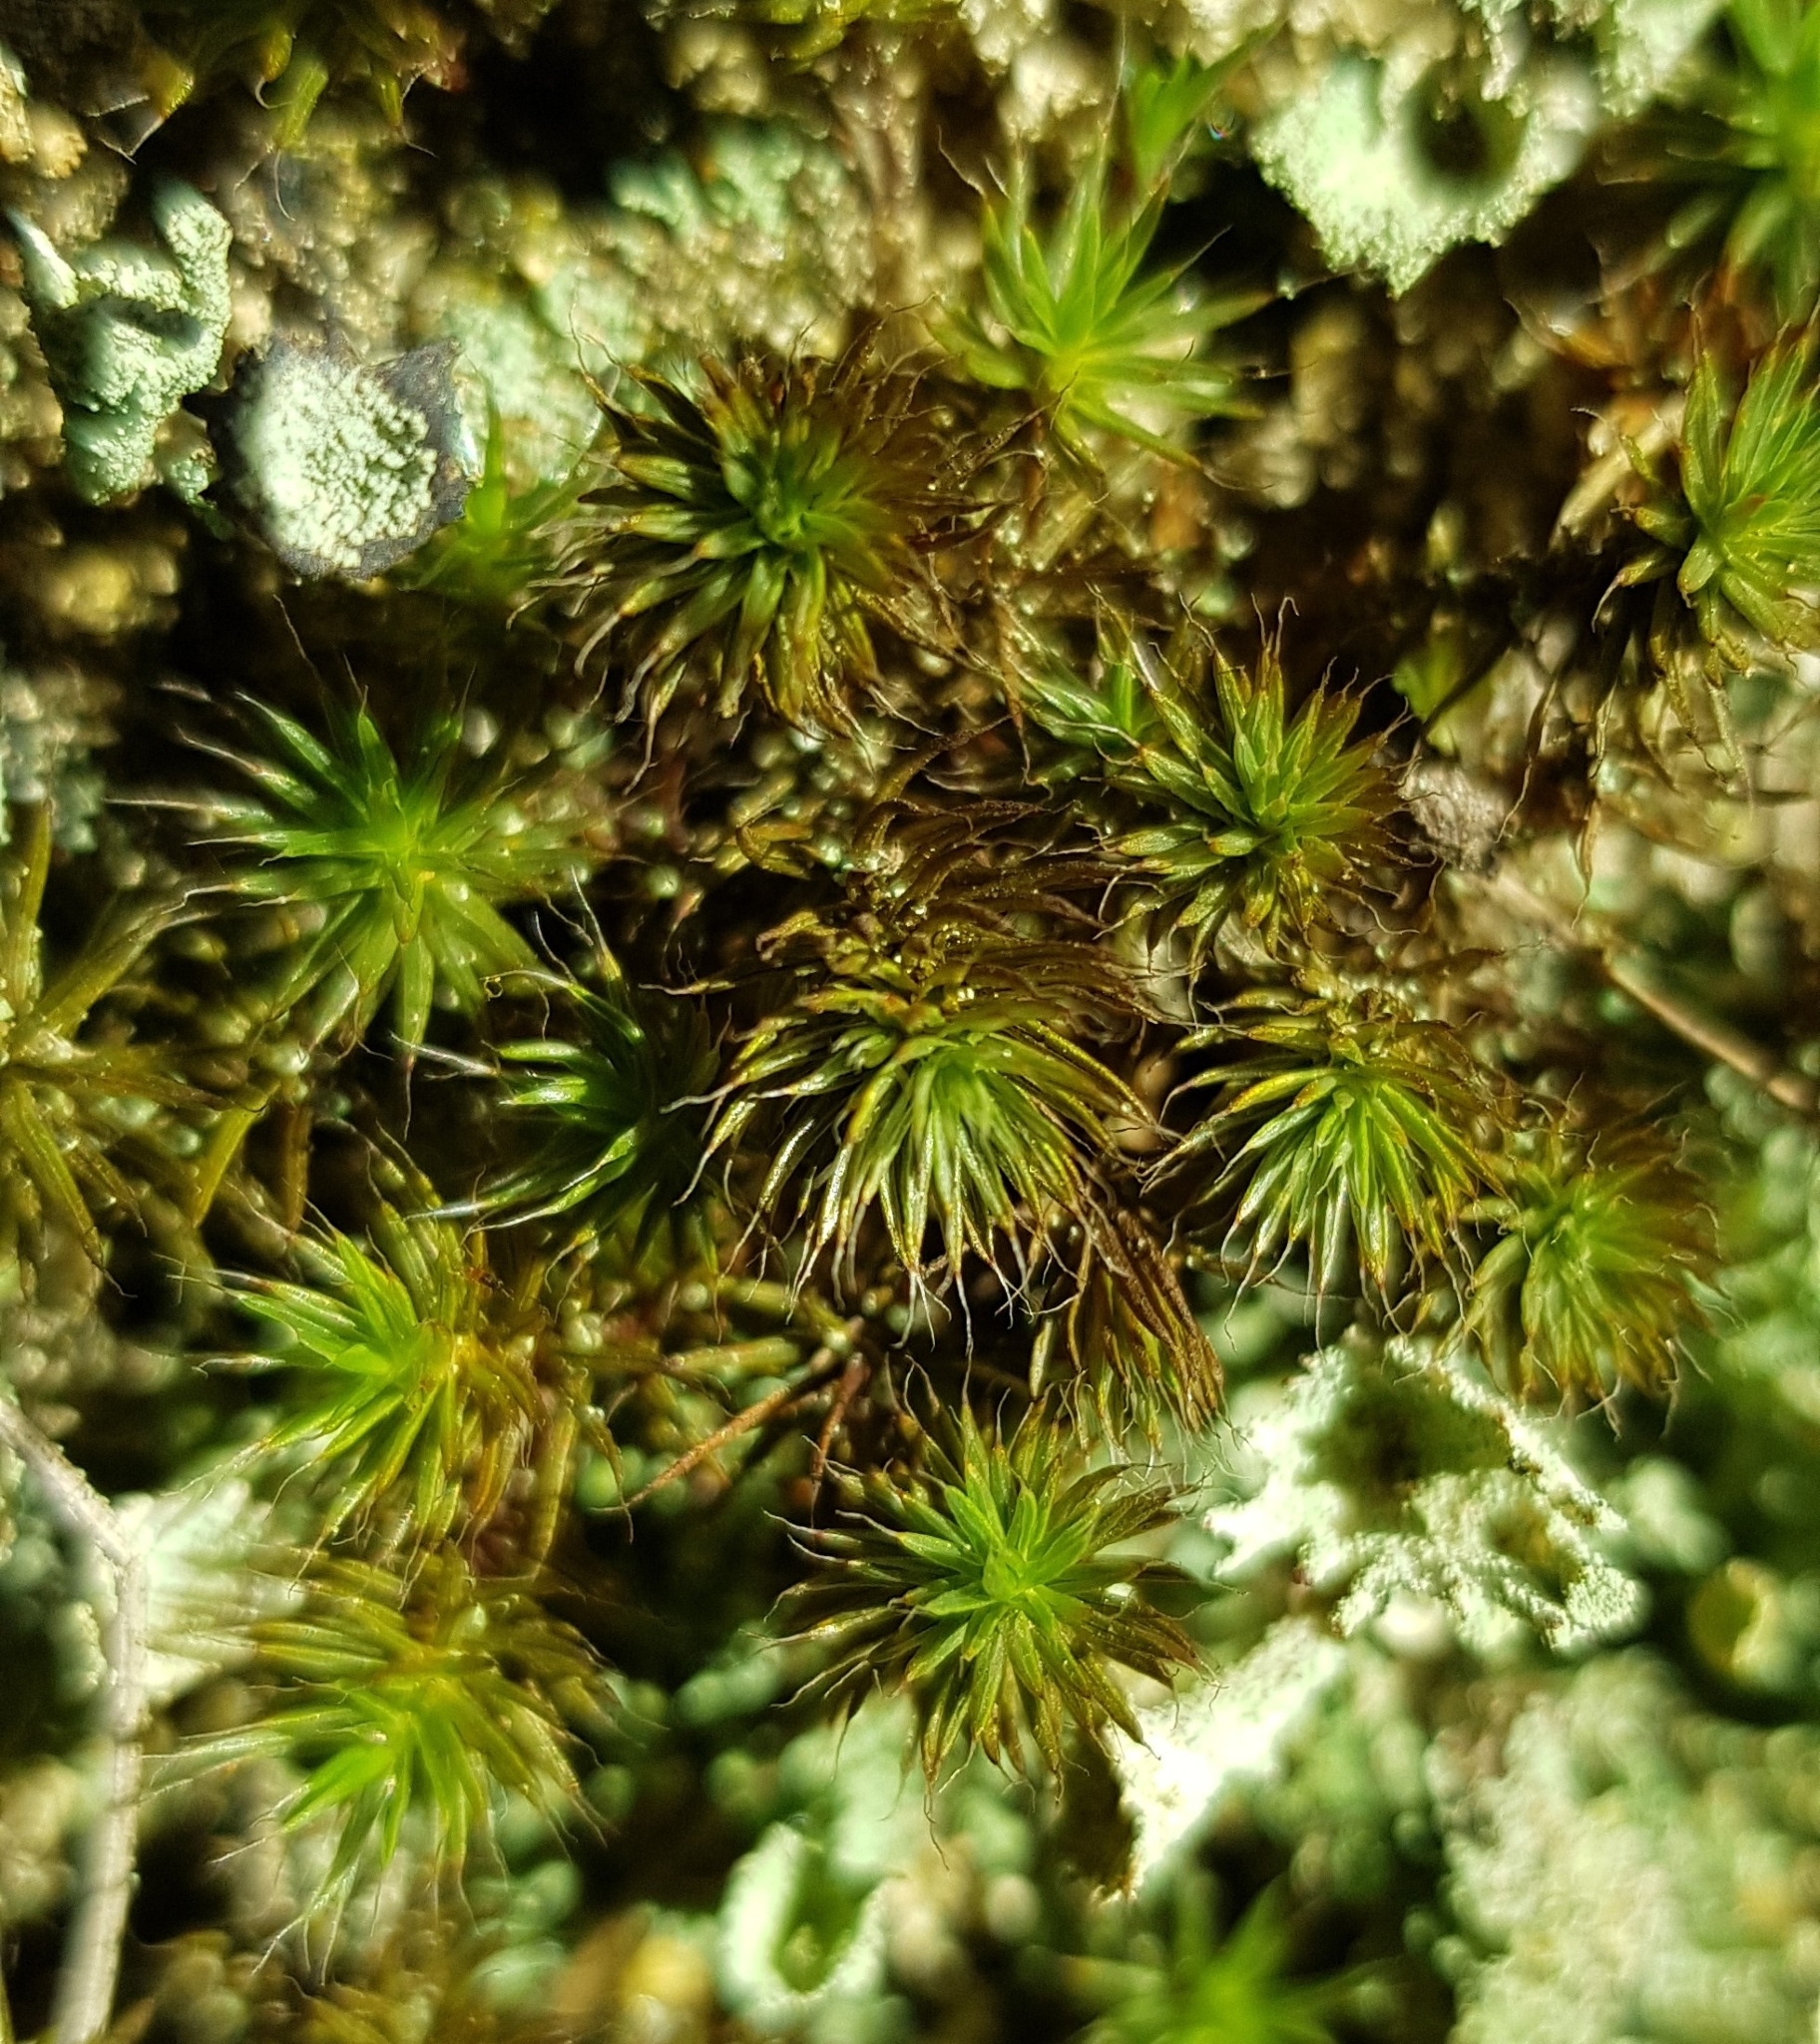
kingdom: Plantae
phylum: Bryophyta
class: Polytrichopsida
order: Polytrichales
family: Polytrichaceae
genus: Polytrichum
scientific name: Polytrichum piliferum
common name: Bristly haircap
